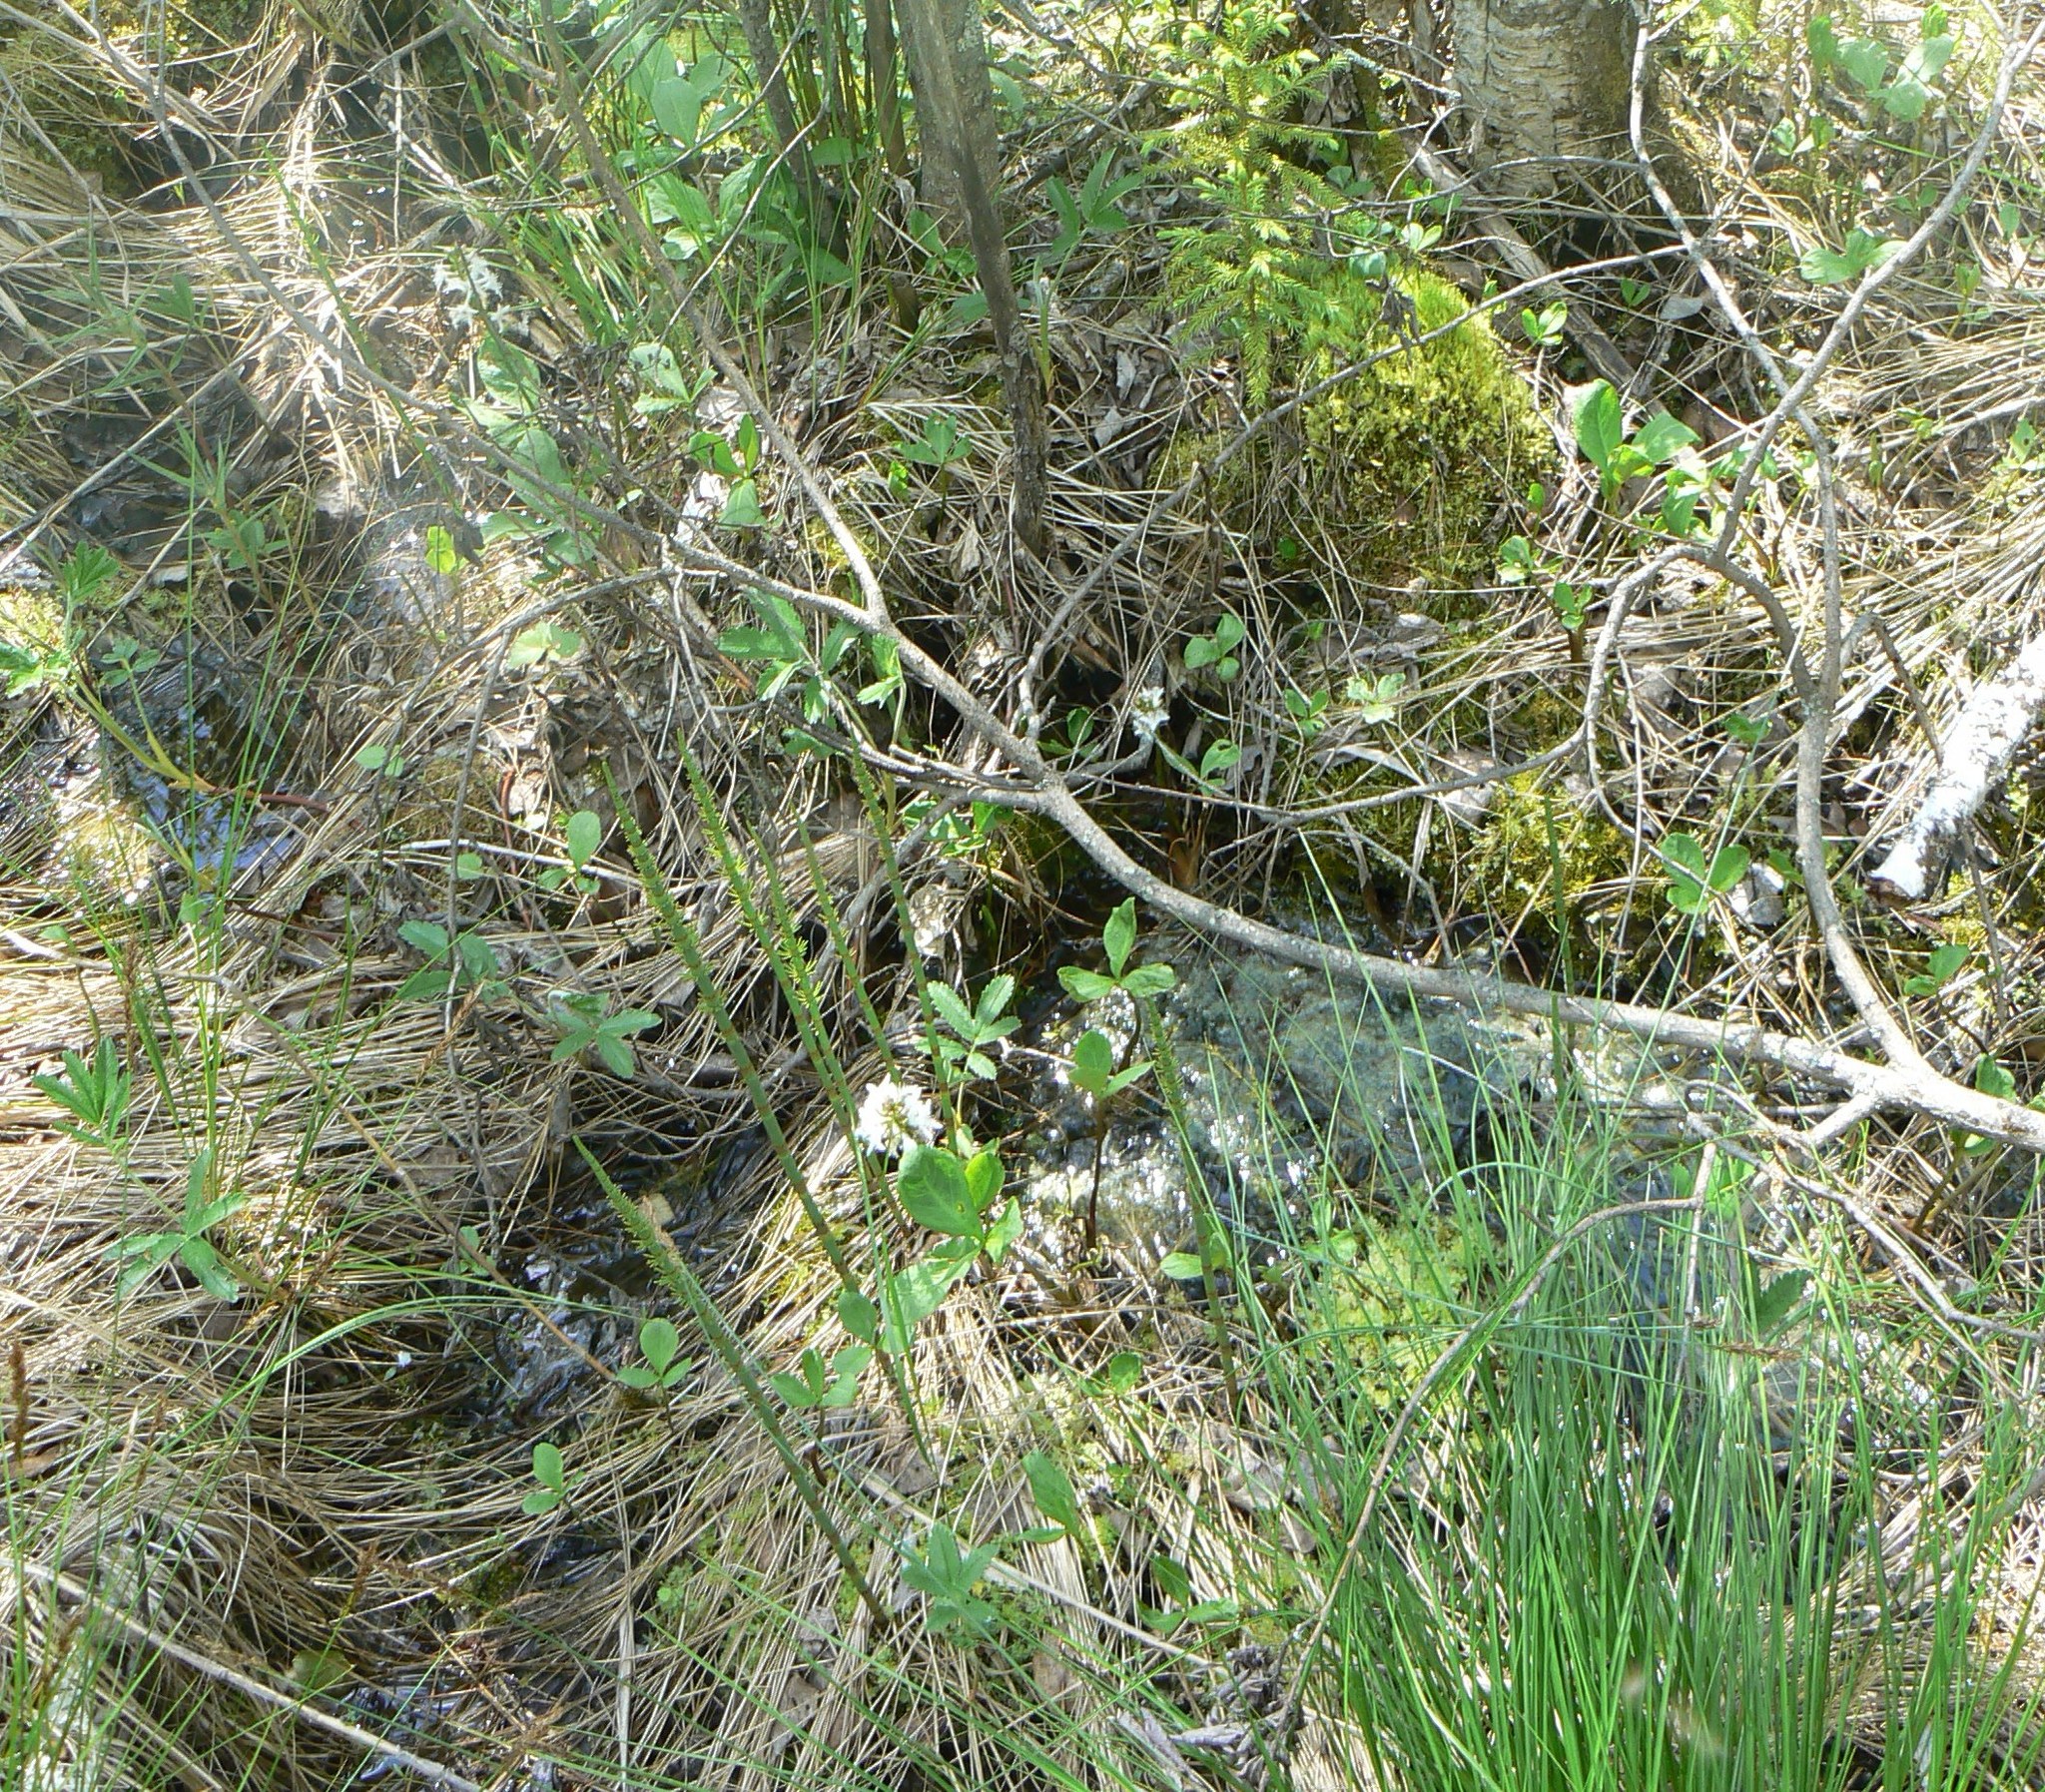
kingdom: Plantae
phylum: Tracheophyta
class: Magnoliopsida
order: Asterales
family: Menyanthaceae
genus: Menyanthes
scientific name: Menyanthes trifoliata
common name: Bogbean
